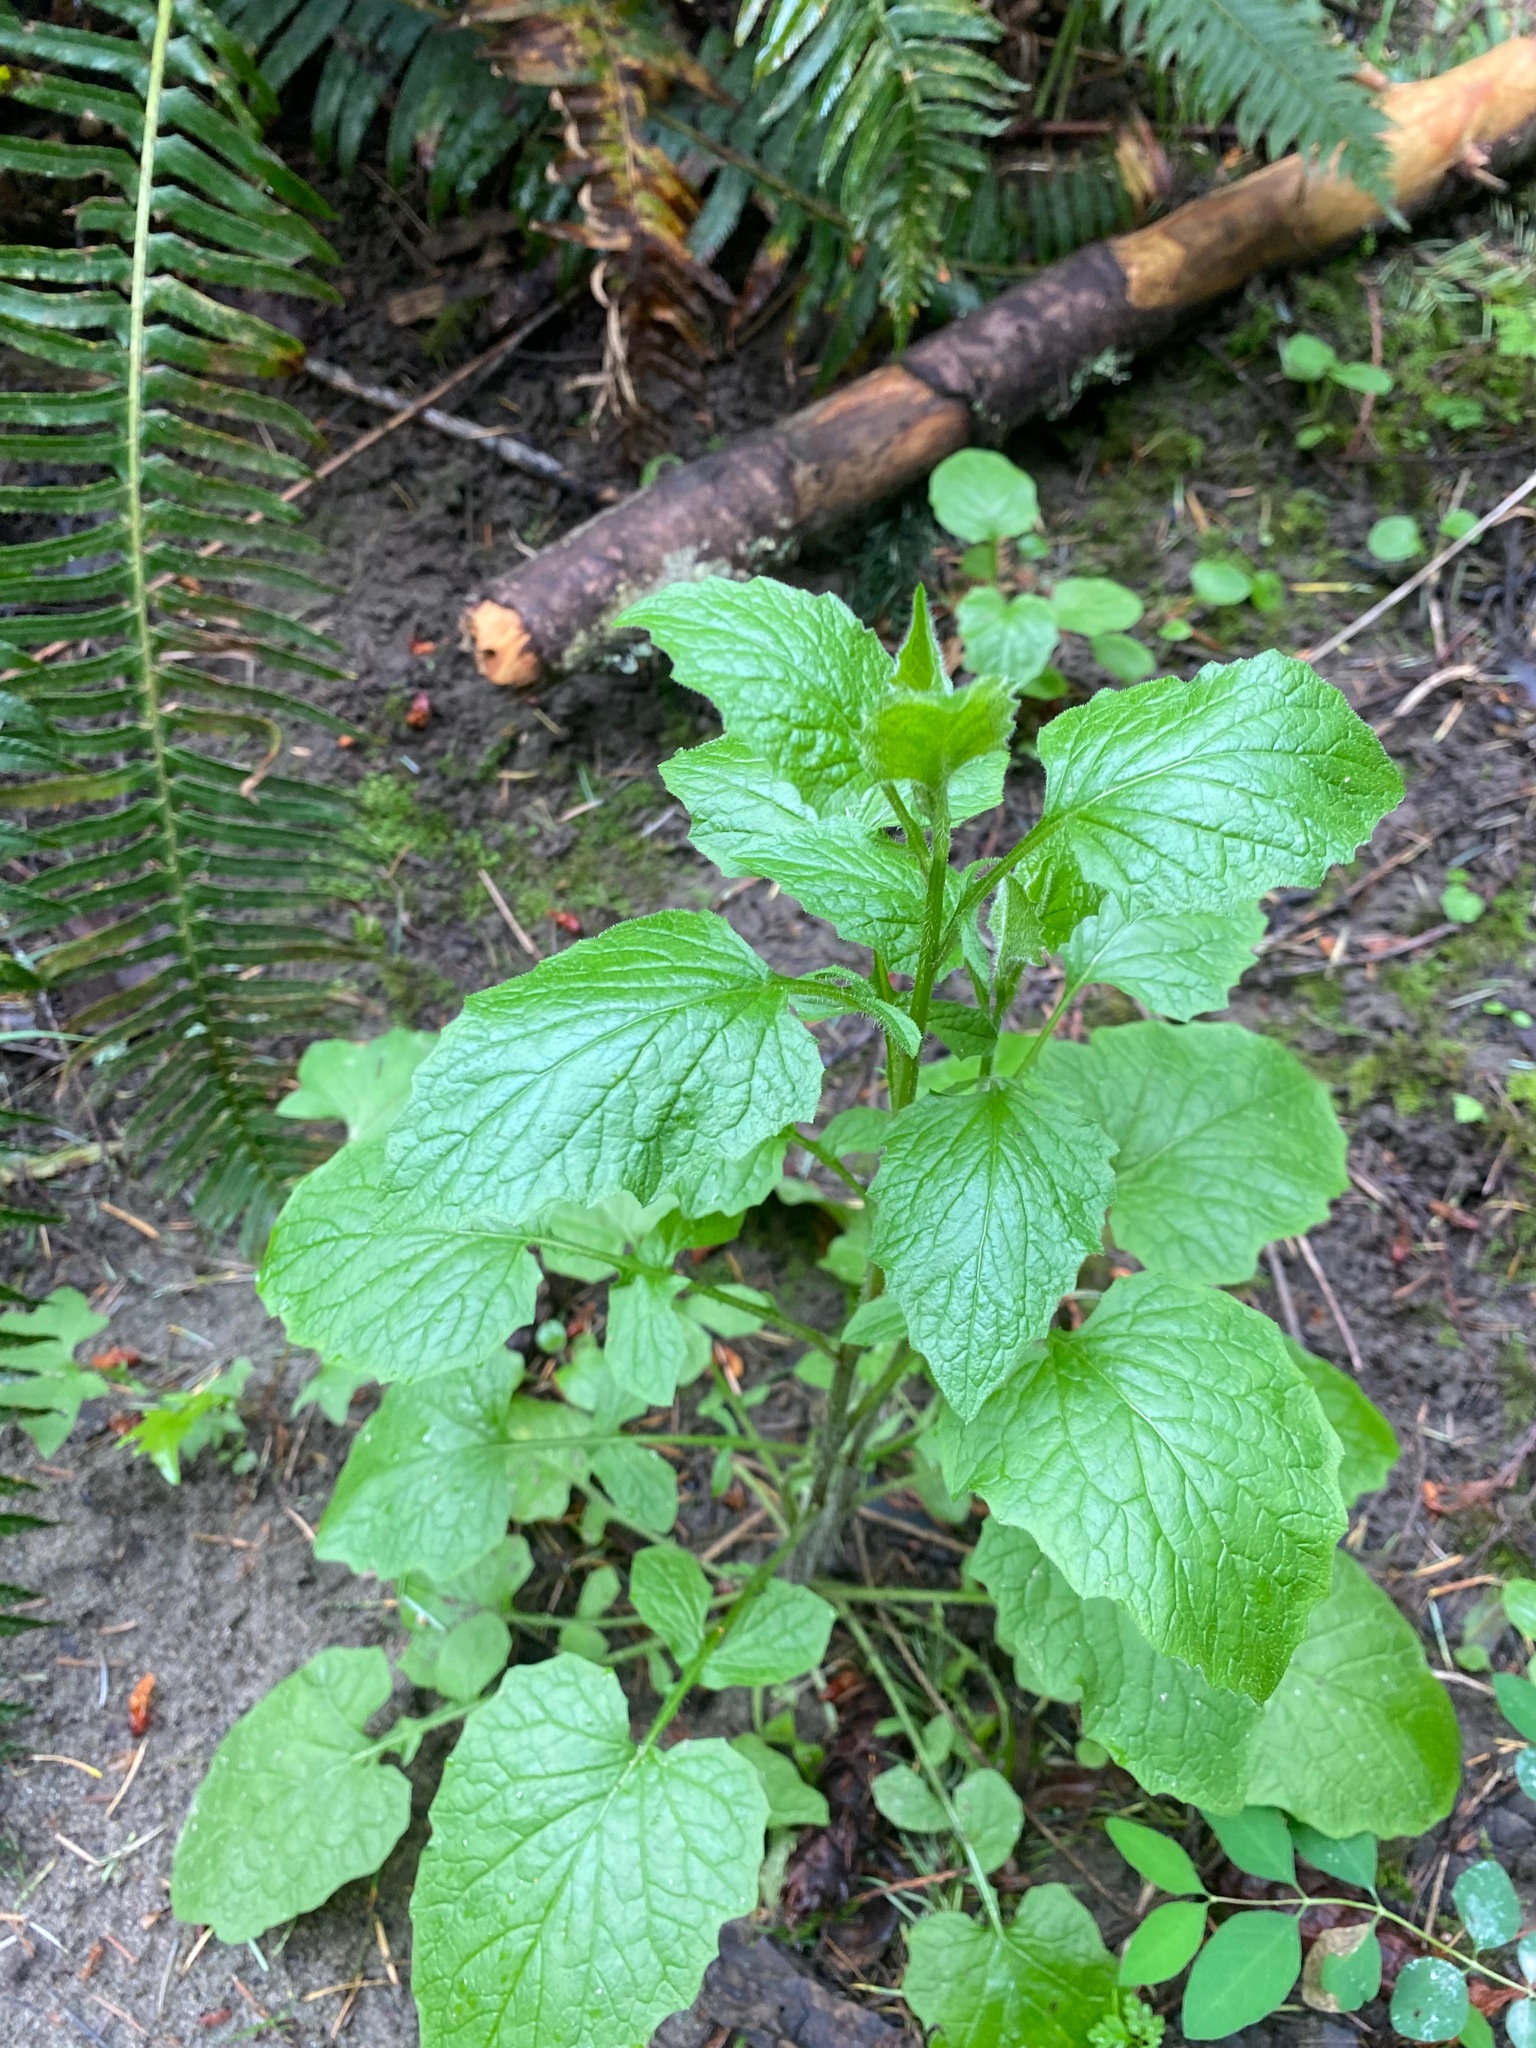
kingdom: Plantae
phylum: Tracheophyta
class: Magnoliopsida
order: Asterales
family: Asteraceae
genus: Lapsana
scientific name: Lapsana communis
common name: Nipplewort
